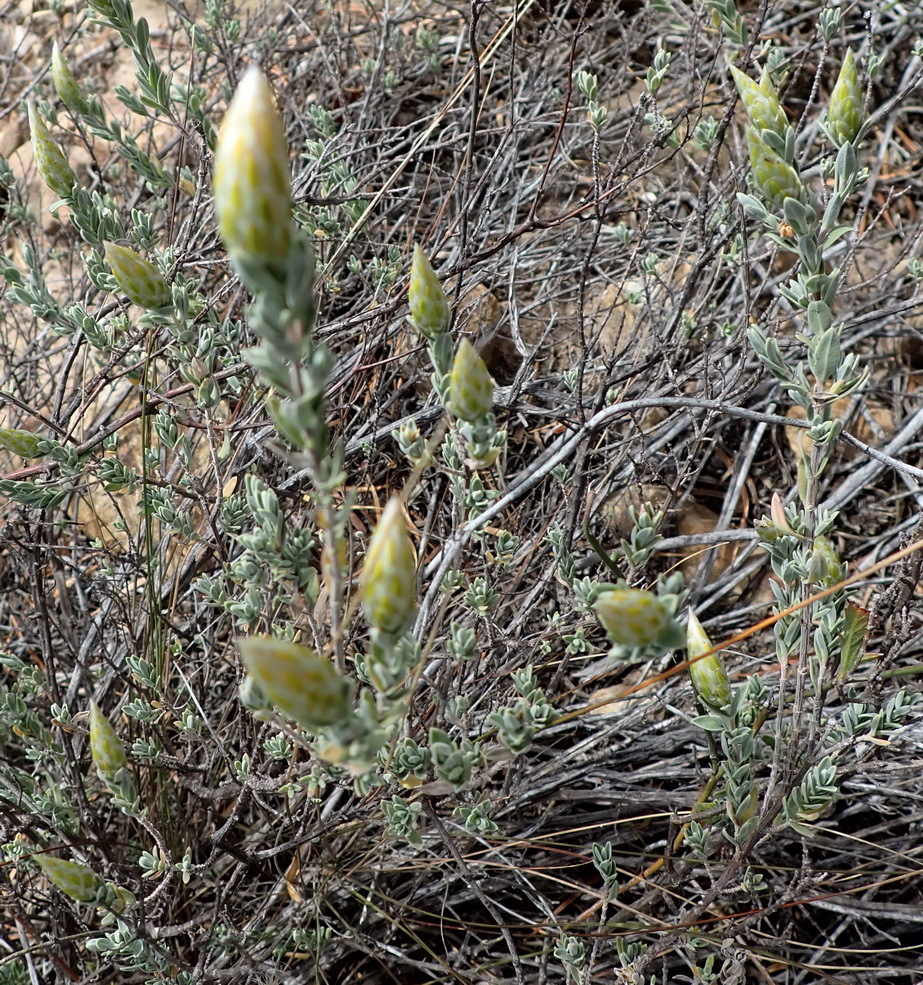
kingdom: Plantae
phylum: Tracheophyta
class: Magnoliopsida
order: Asterales
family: Asteraceae
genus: Pteronia
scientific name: Pteronia membranacea
